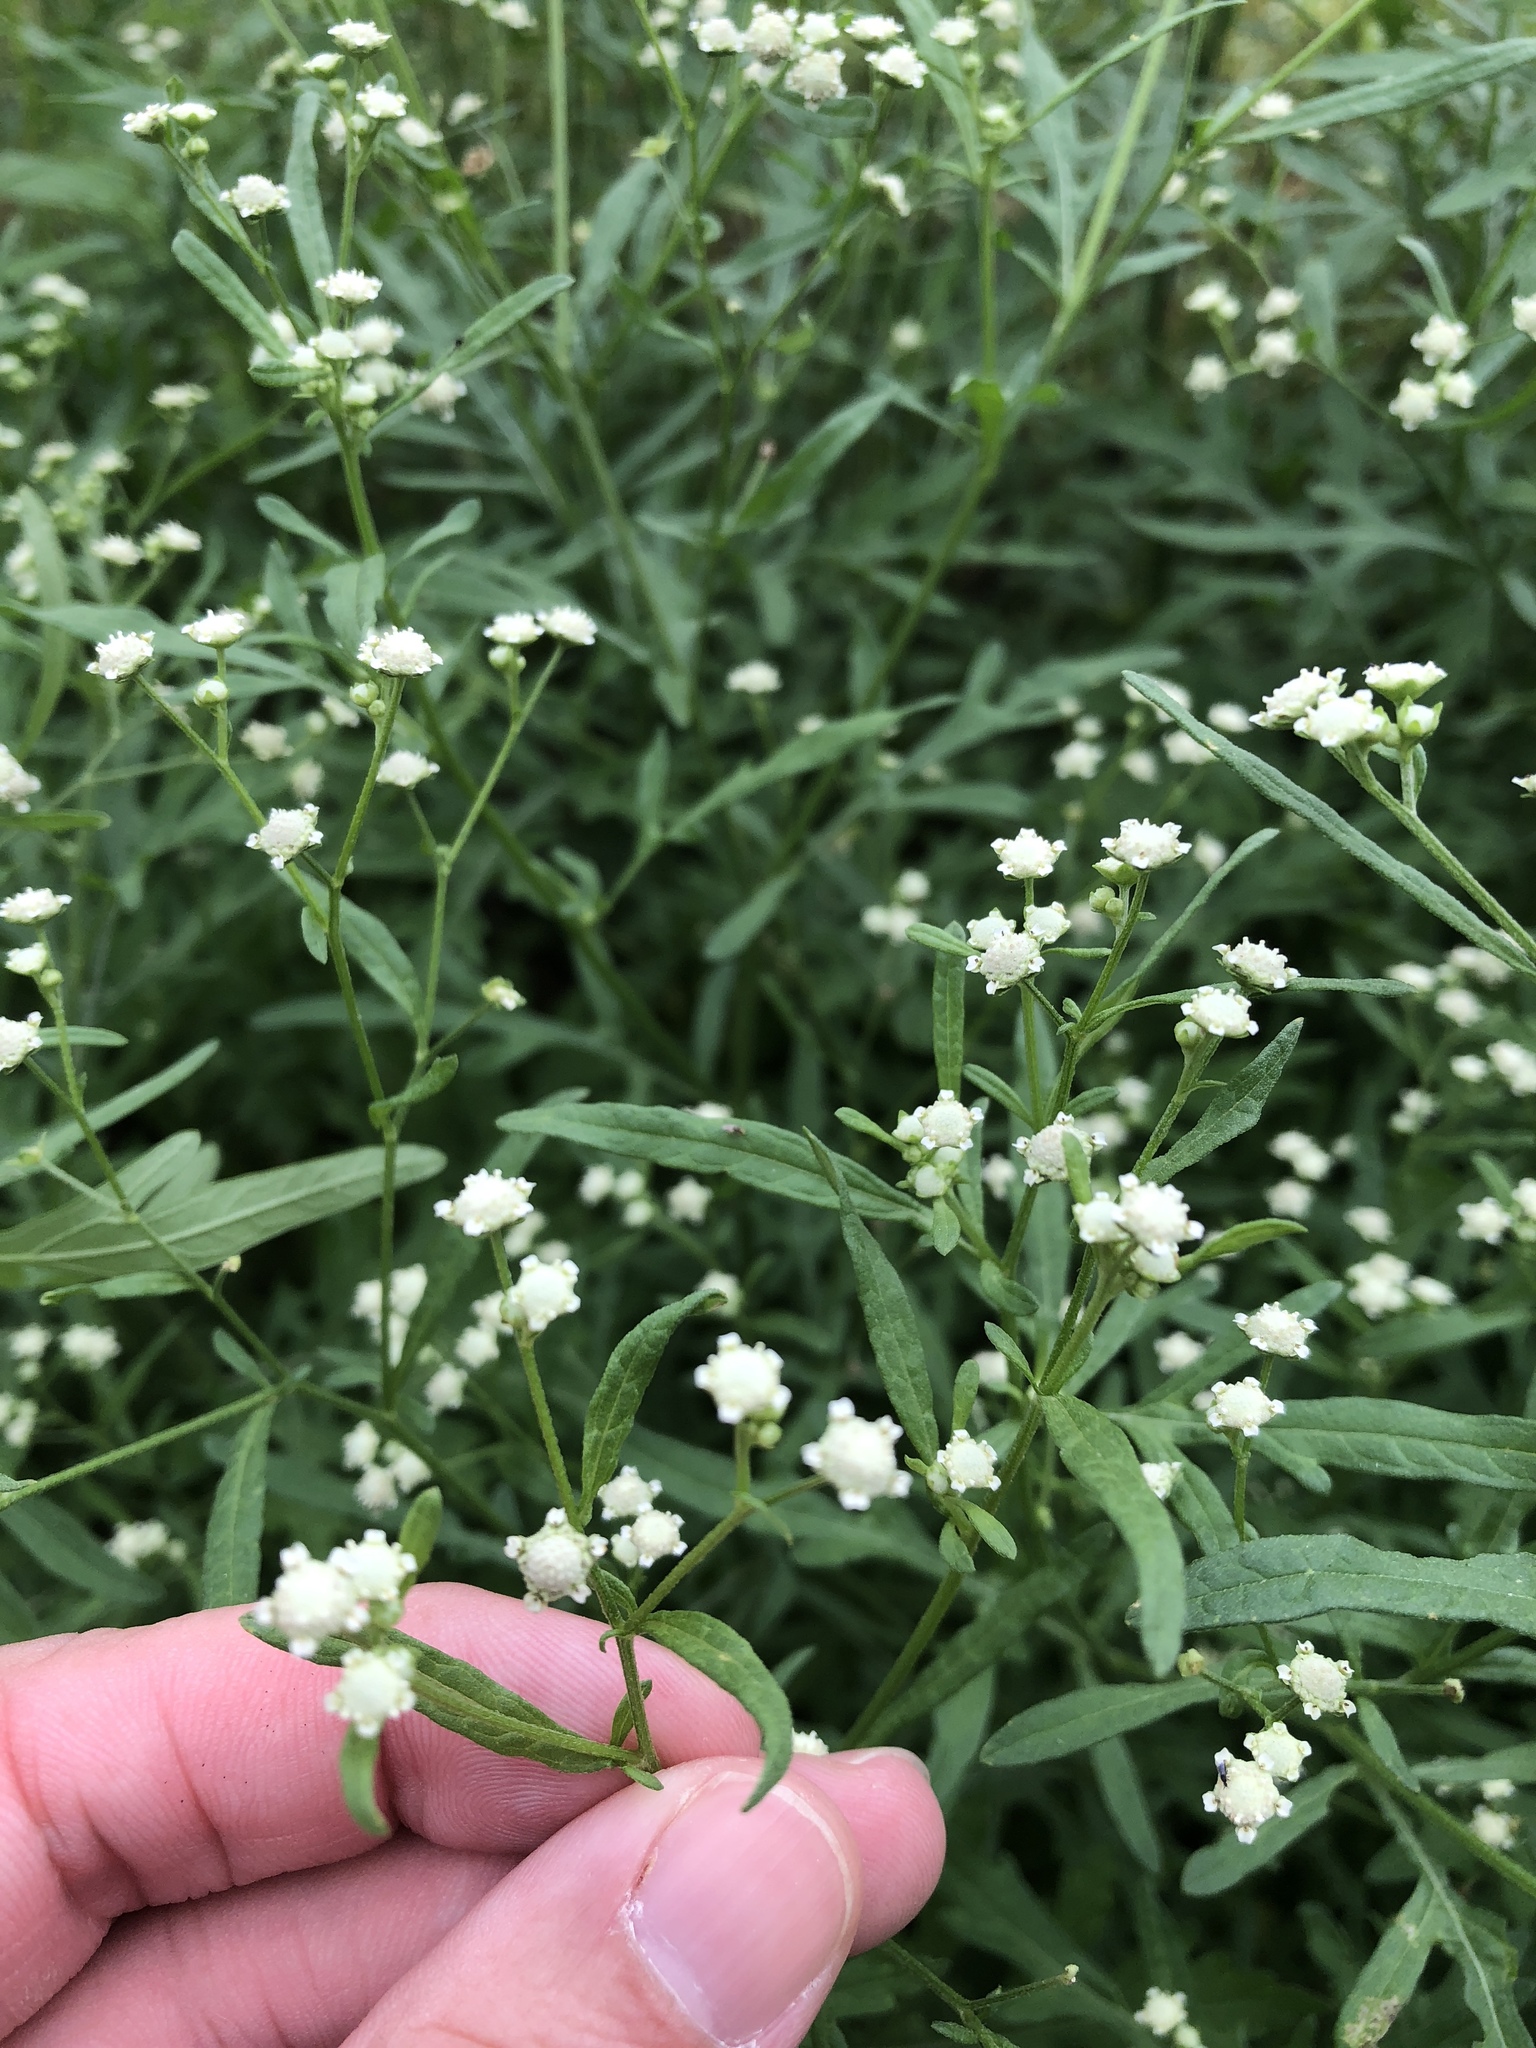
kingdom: Plantae
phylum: Tracheophyta
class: Magnoliopsida
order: Asterales
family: Asteraceae
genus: Parthenium
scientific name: Parthenium hysterophorus
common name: Santa maria feverfew
